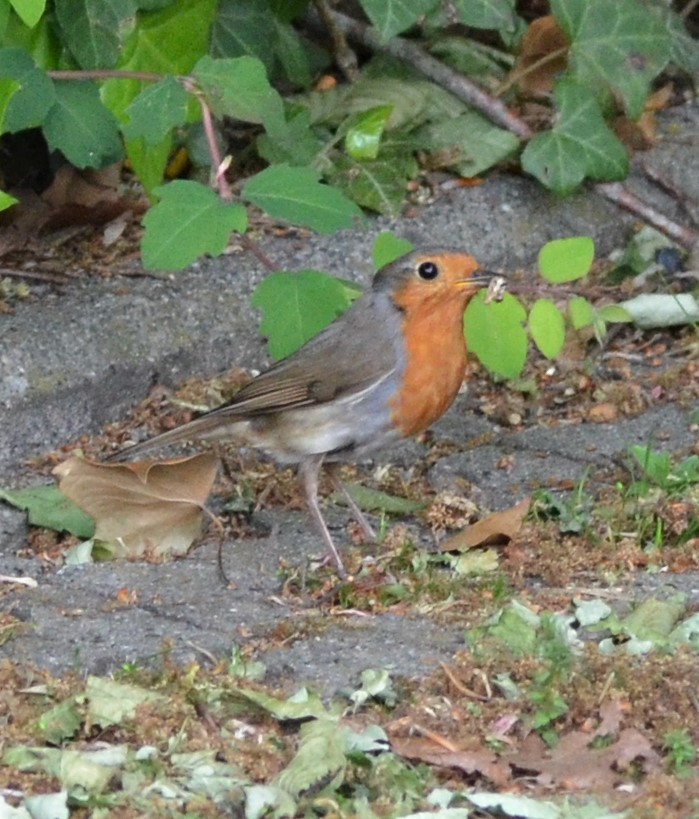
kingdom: Animalia
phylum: Chordata
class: Aves
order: Passeriformes
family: Muscicapidae
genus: Erithacus
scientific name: Erithacus rubecula
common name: European robin
